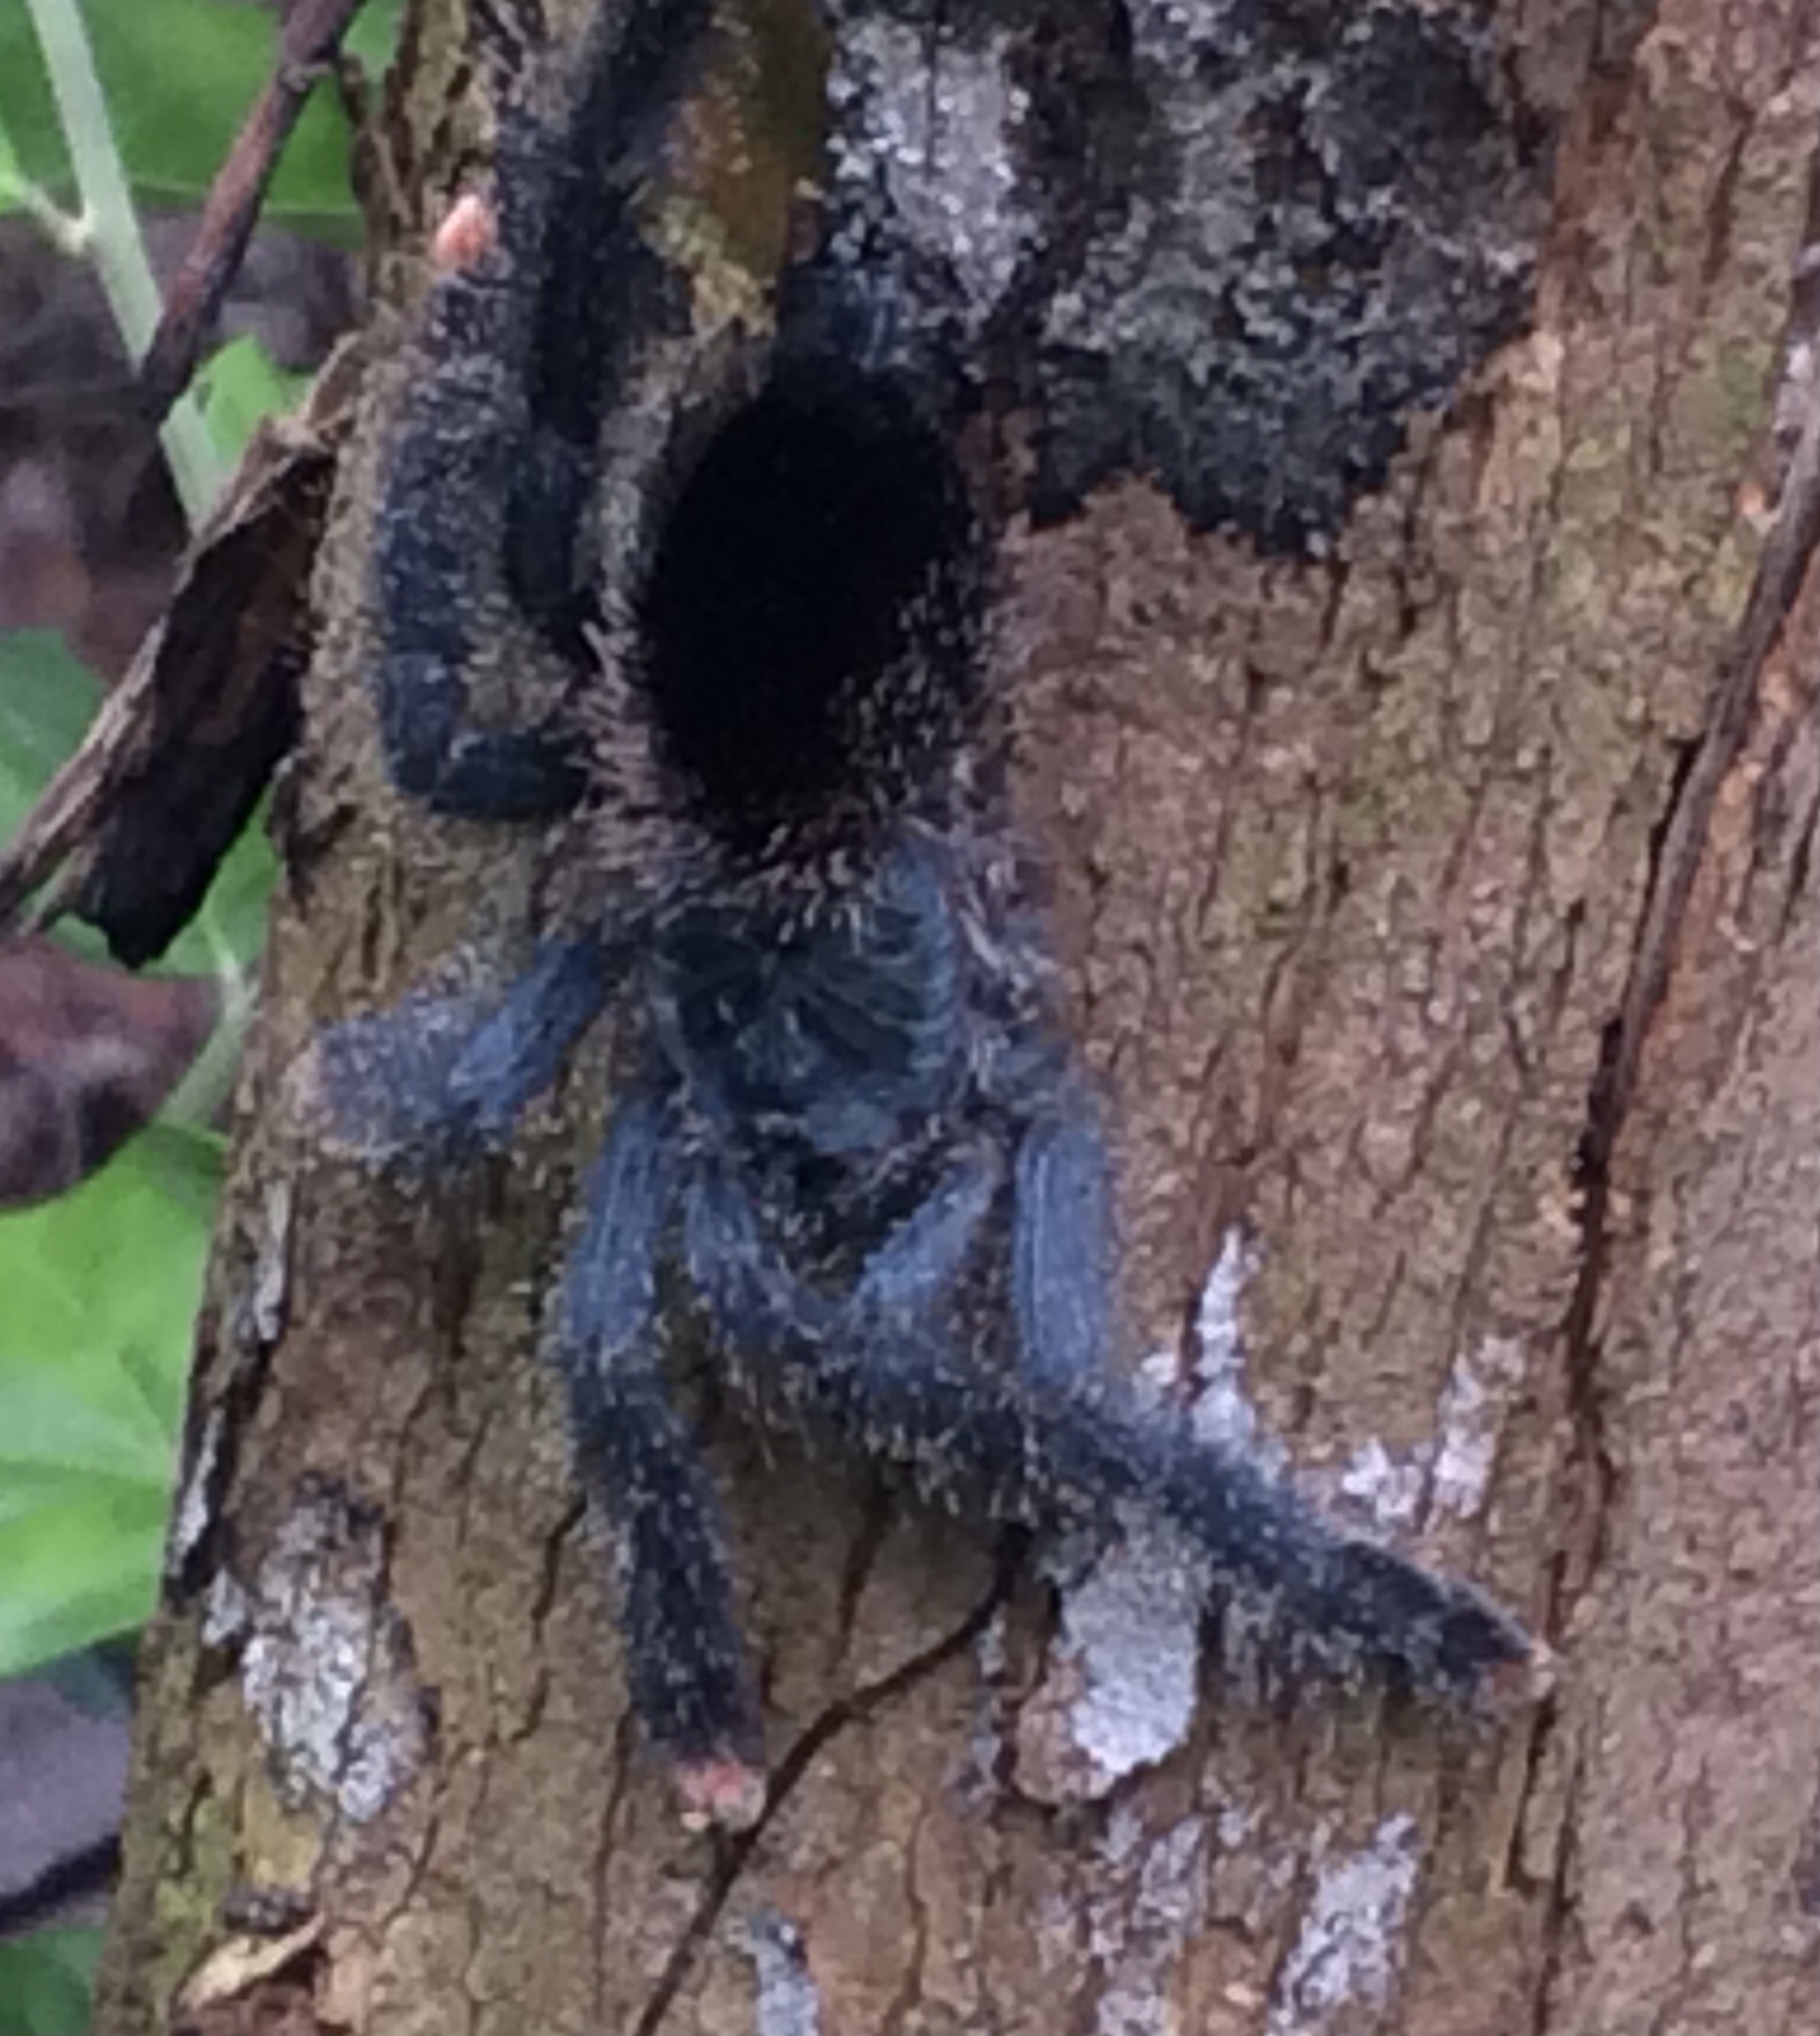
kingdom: Animalia
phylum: Arthropoda
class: Arachnida
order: Araneae
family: Theraphosidae
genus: Avicularia
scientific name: Avicularia avicularia
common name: Tarantula spiders
